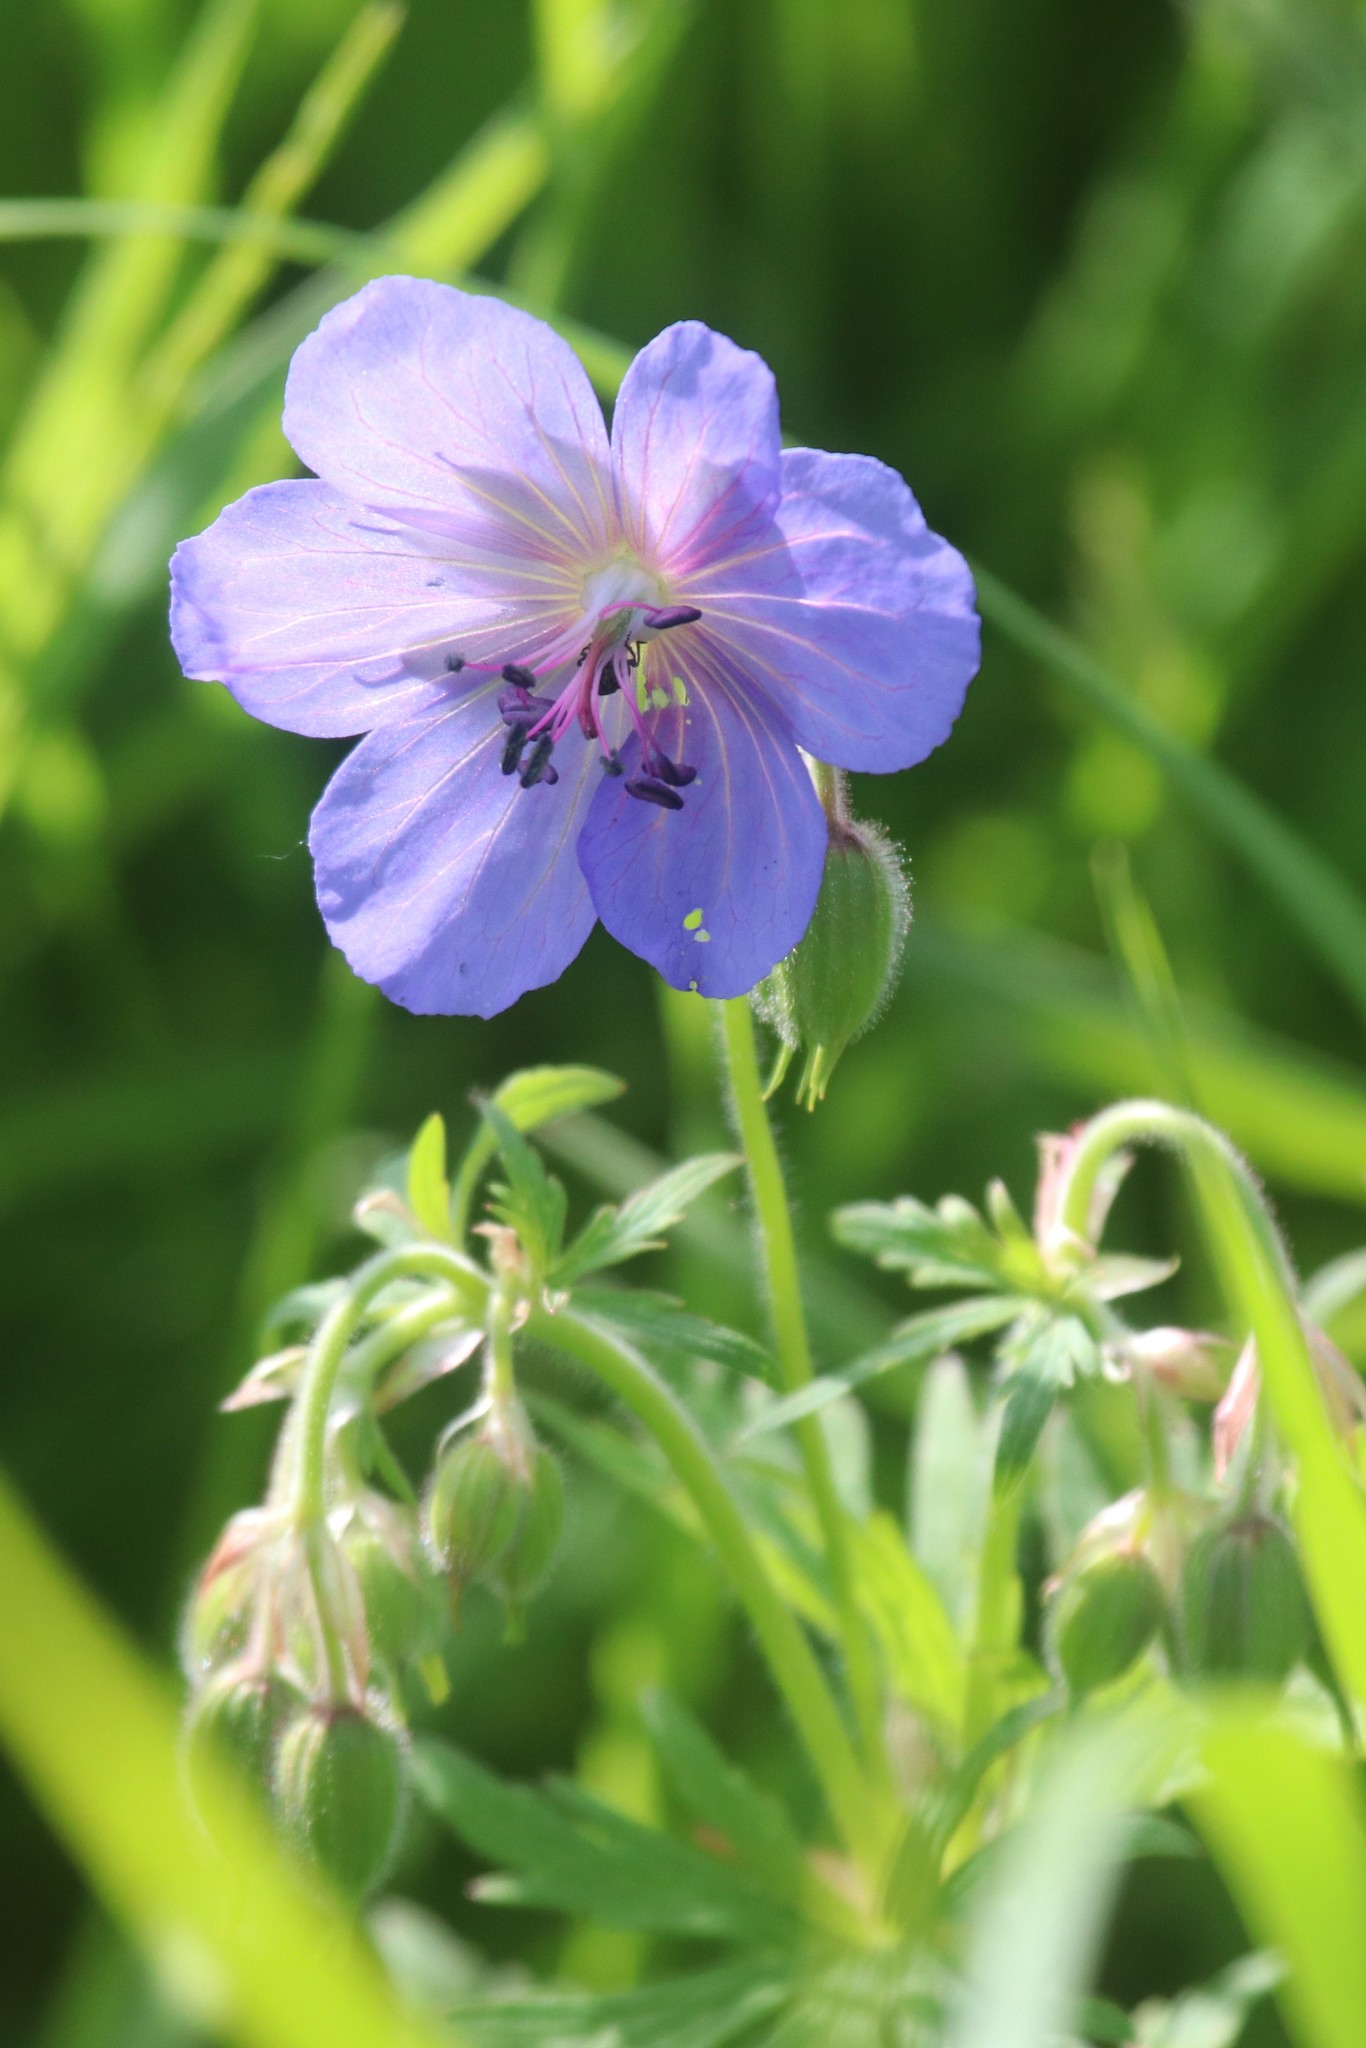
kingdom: Plantae
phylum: Tracheophyta
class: Magnoliopsida
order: Geraniales
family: Geraniaceae
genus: Geranium
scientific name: Geranium pratense
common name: Meadow crane's-bill
